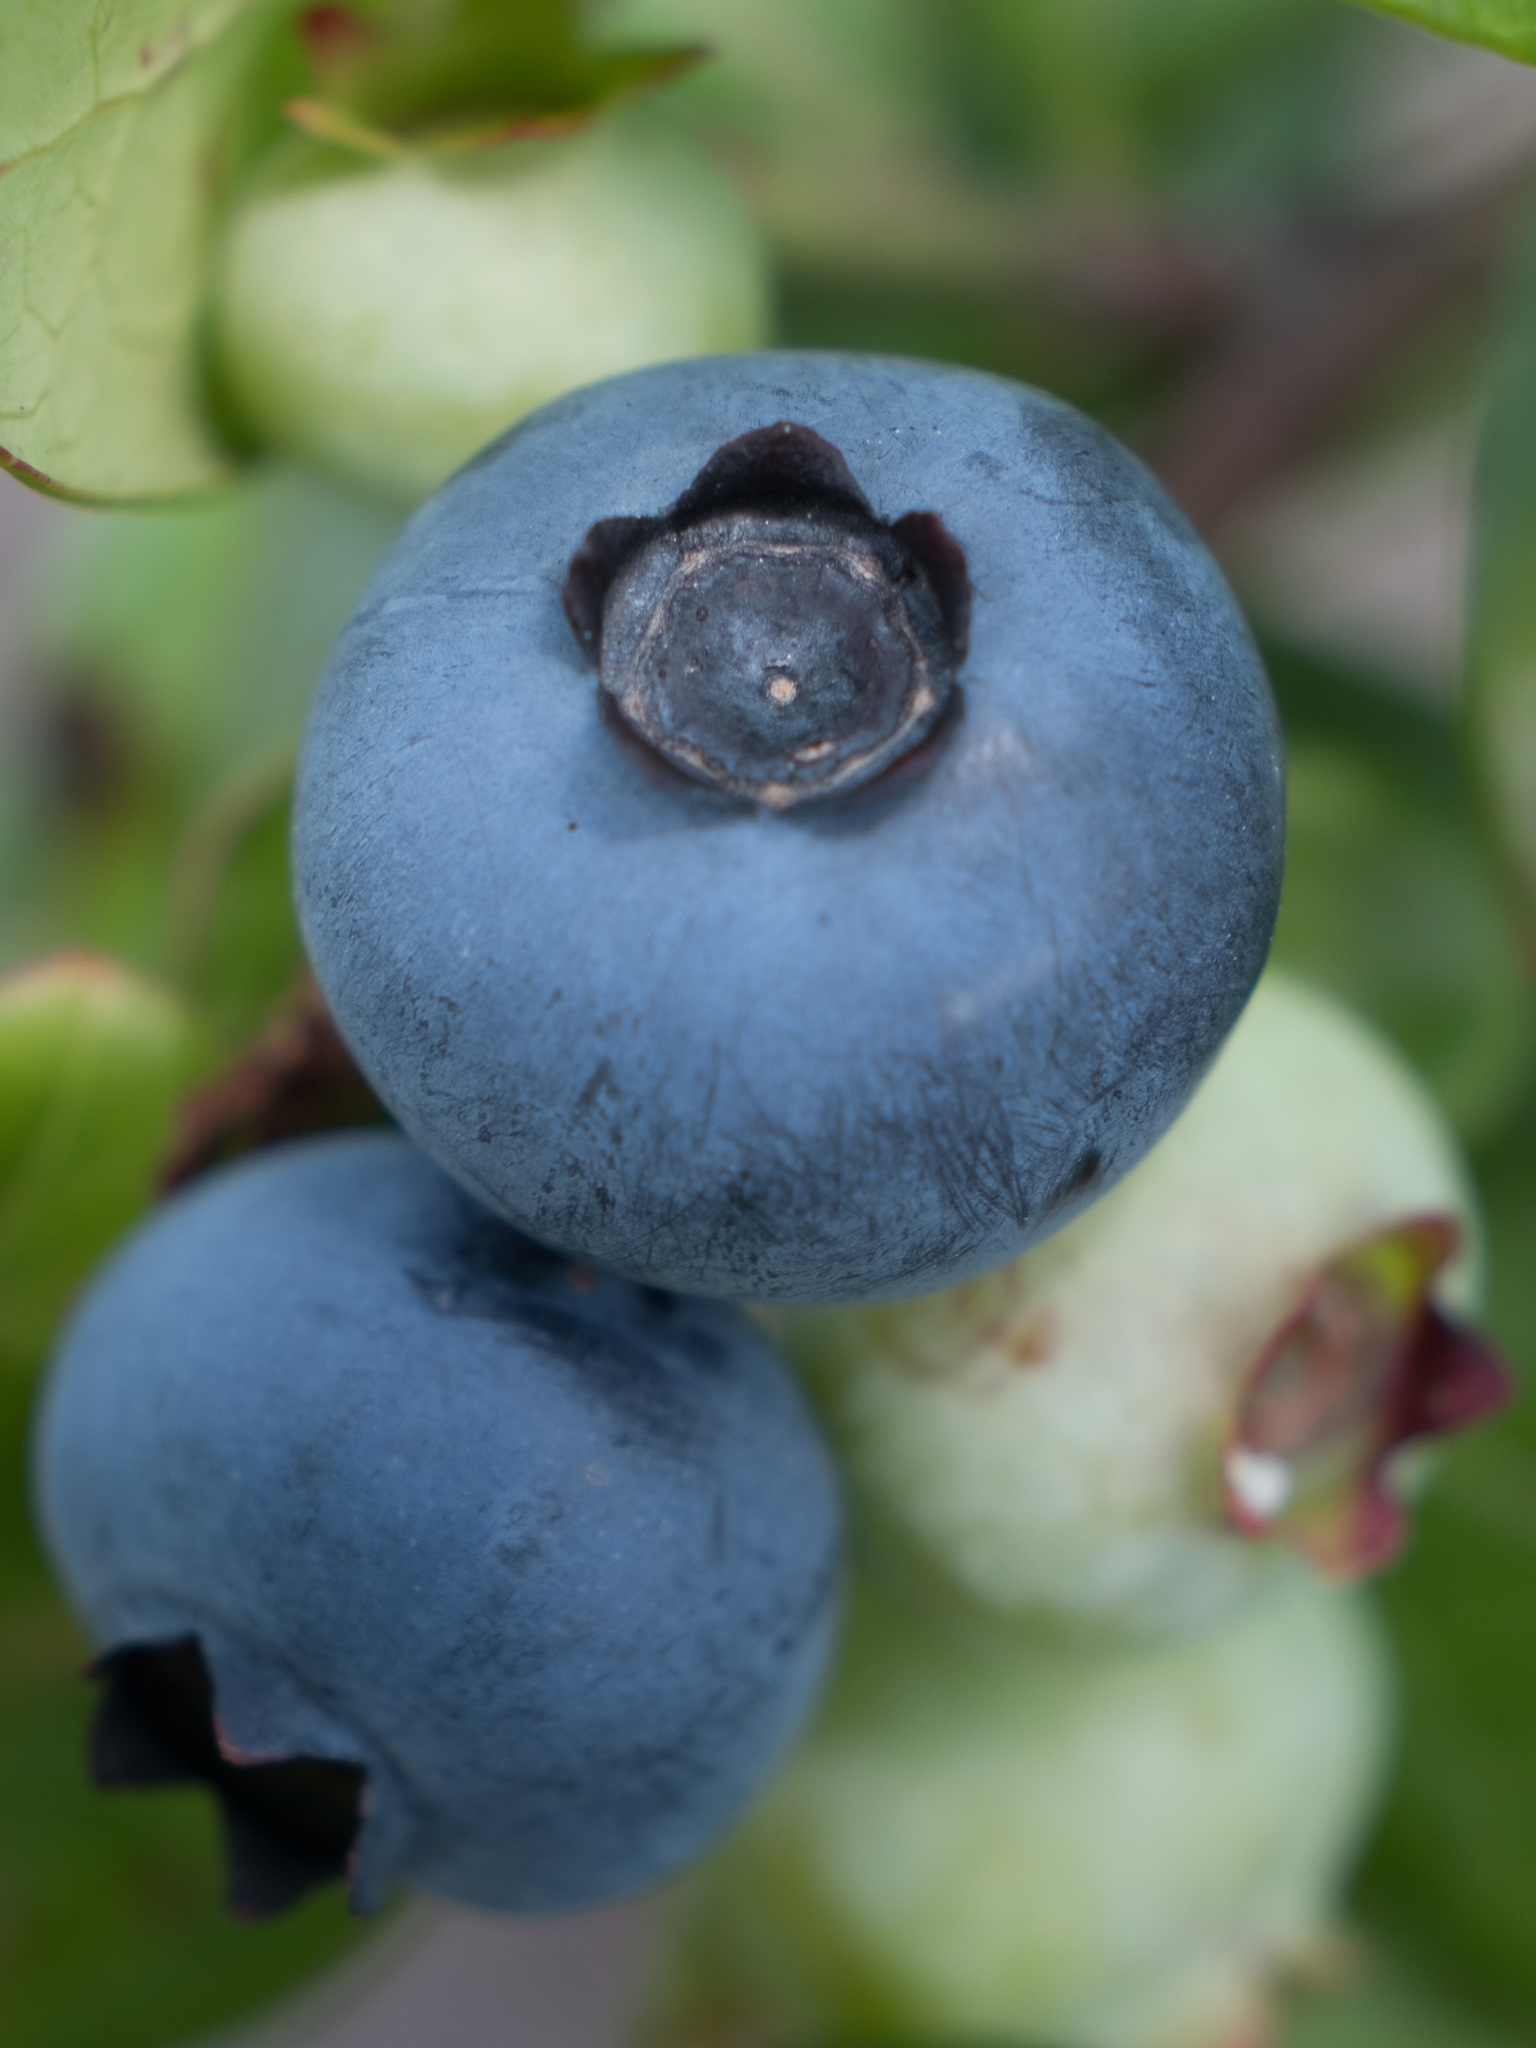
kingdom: Plantae
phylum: Tracheophyta
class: Magnoliopsida
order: Ericales
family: Ericaceae
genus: Vaccinium
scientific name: Vaccinium corymbosum
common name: Blueberry
